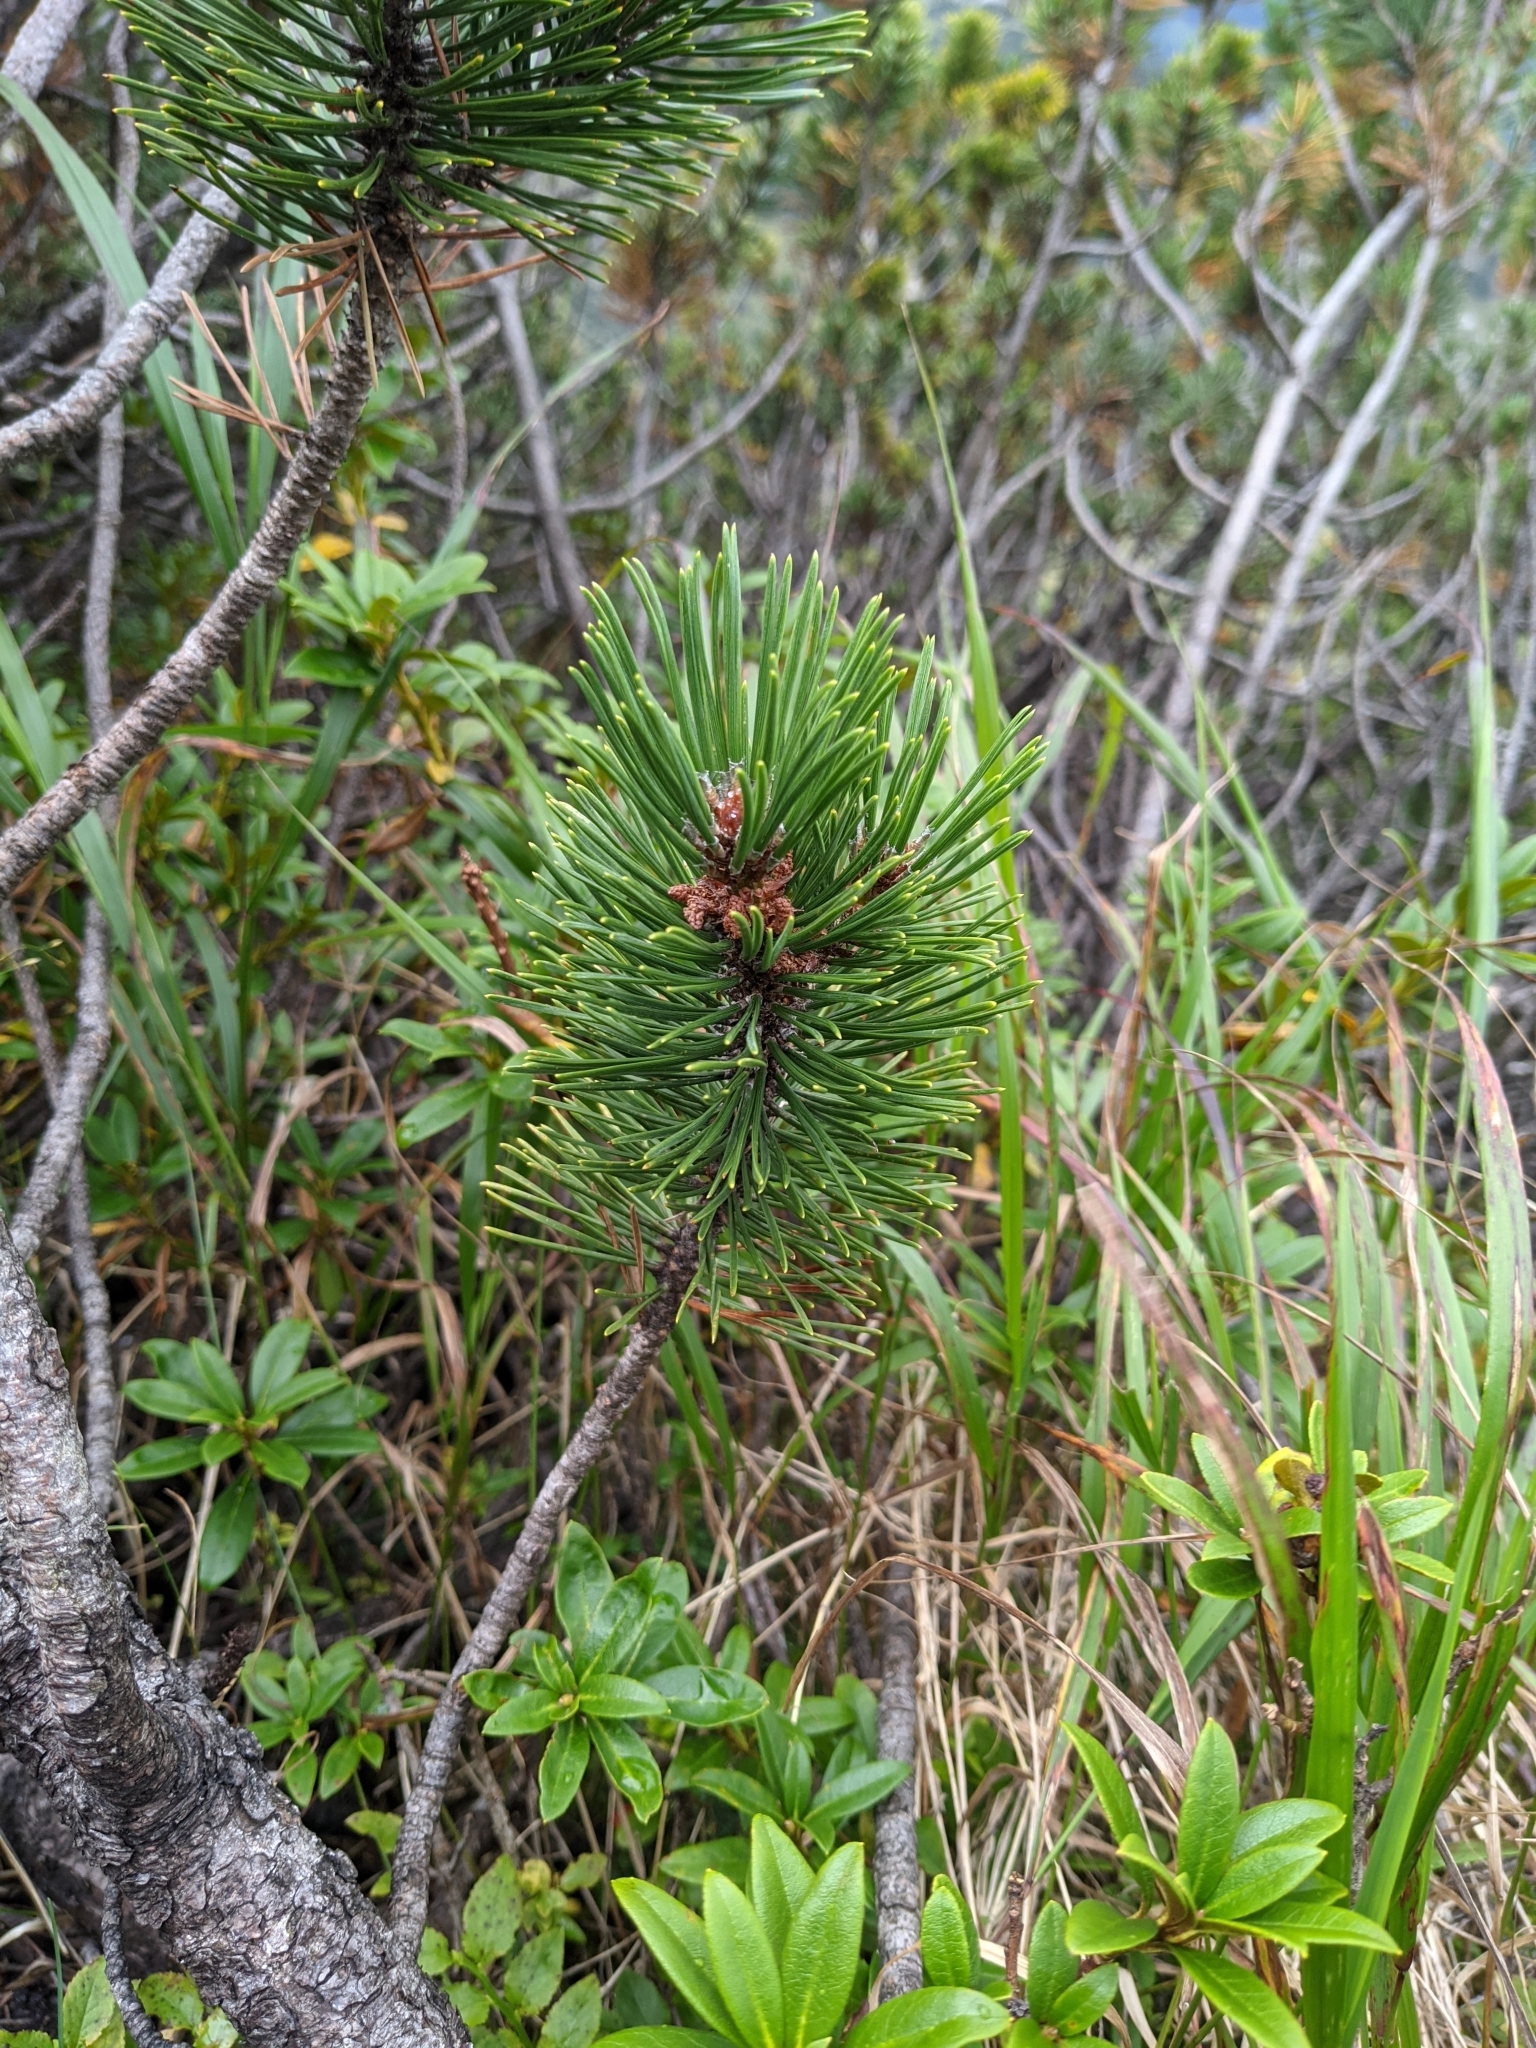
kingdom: Plantae
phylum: Tracheophyta
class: Pinopsida
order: Pinales
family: Pinaceae
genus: Pinus
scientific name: Pinus mugo
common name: Mugo pine
